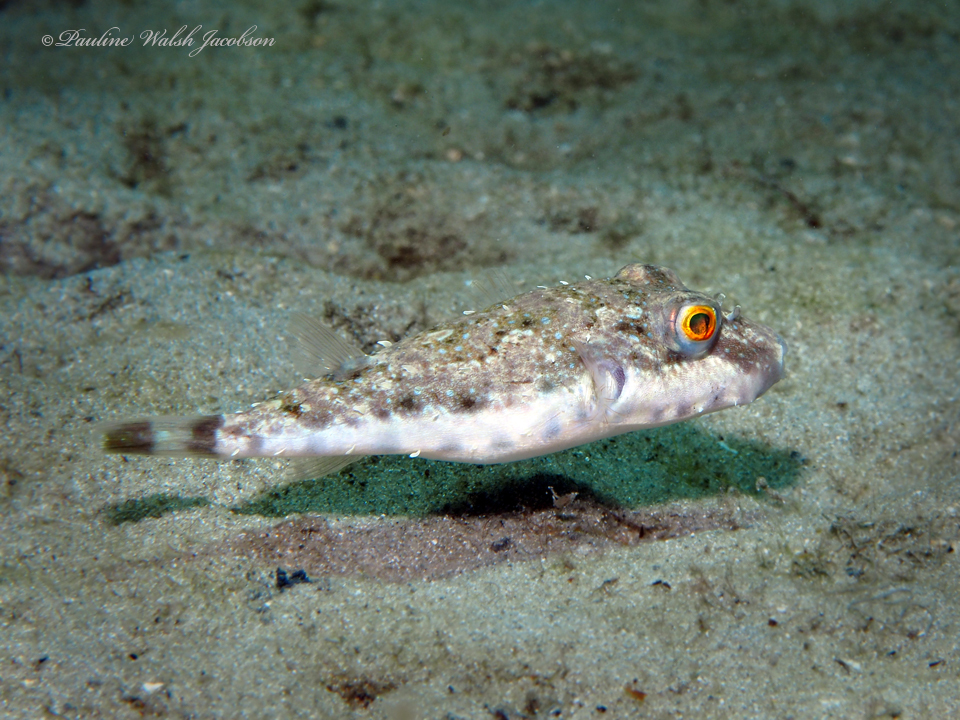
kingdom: Animalia
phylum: Chordata
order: Tetraodontiformes
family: Tetraodontidae
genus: Sphoeroides
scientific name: Sphoeroides spengleri
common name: Bandtail puffer
